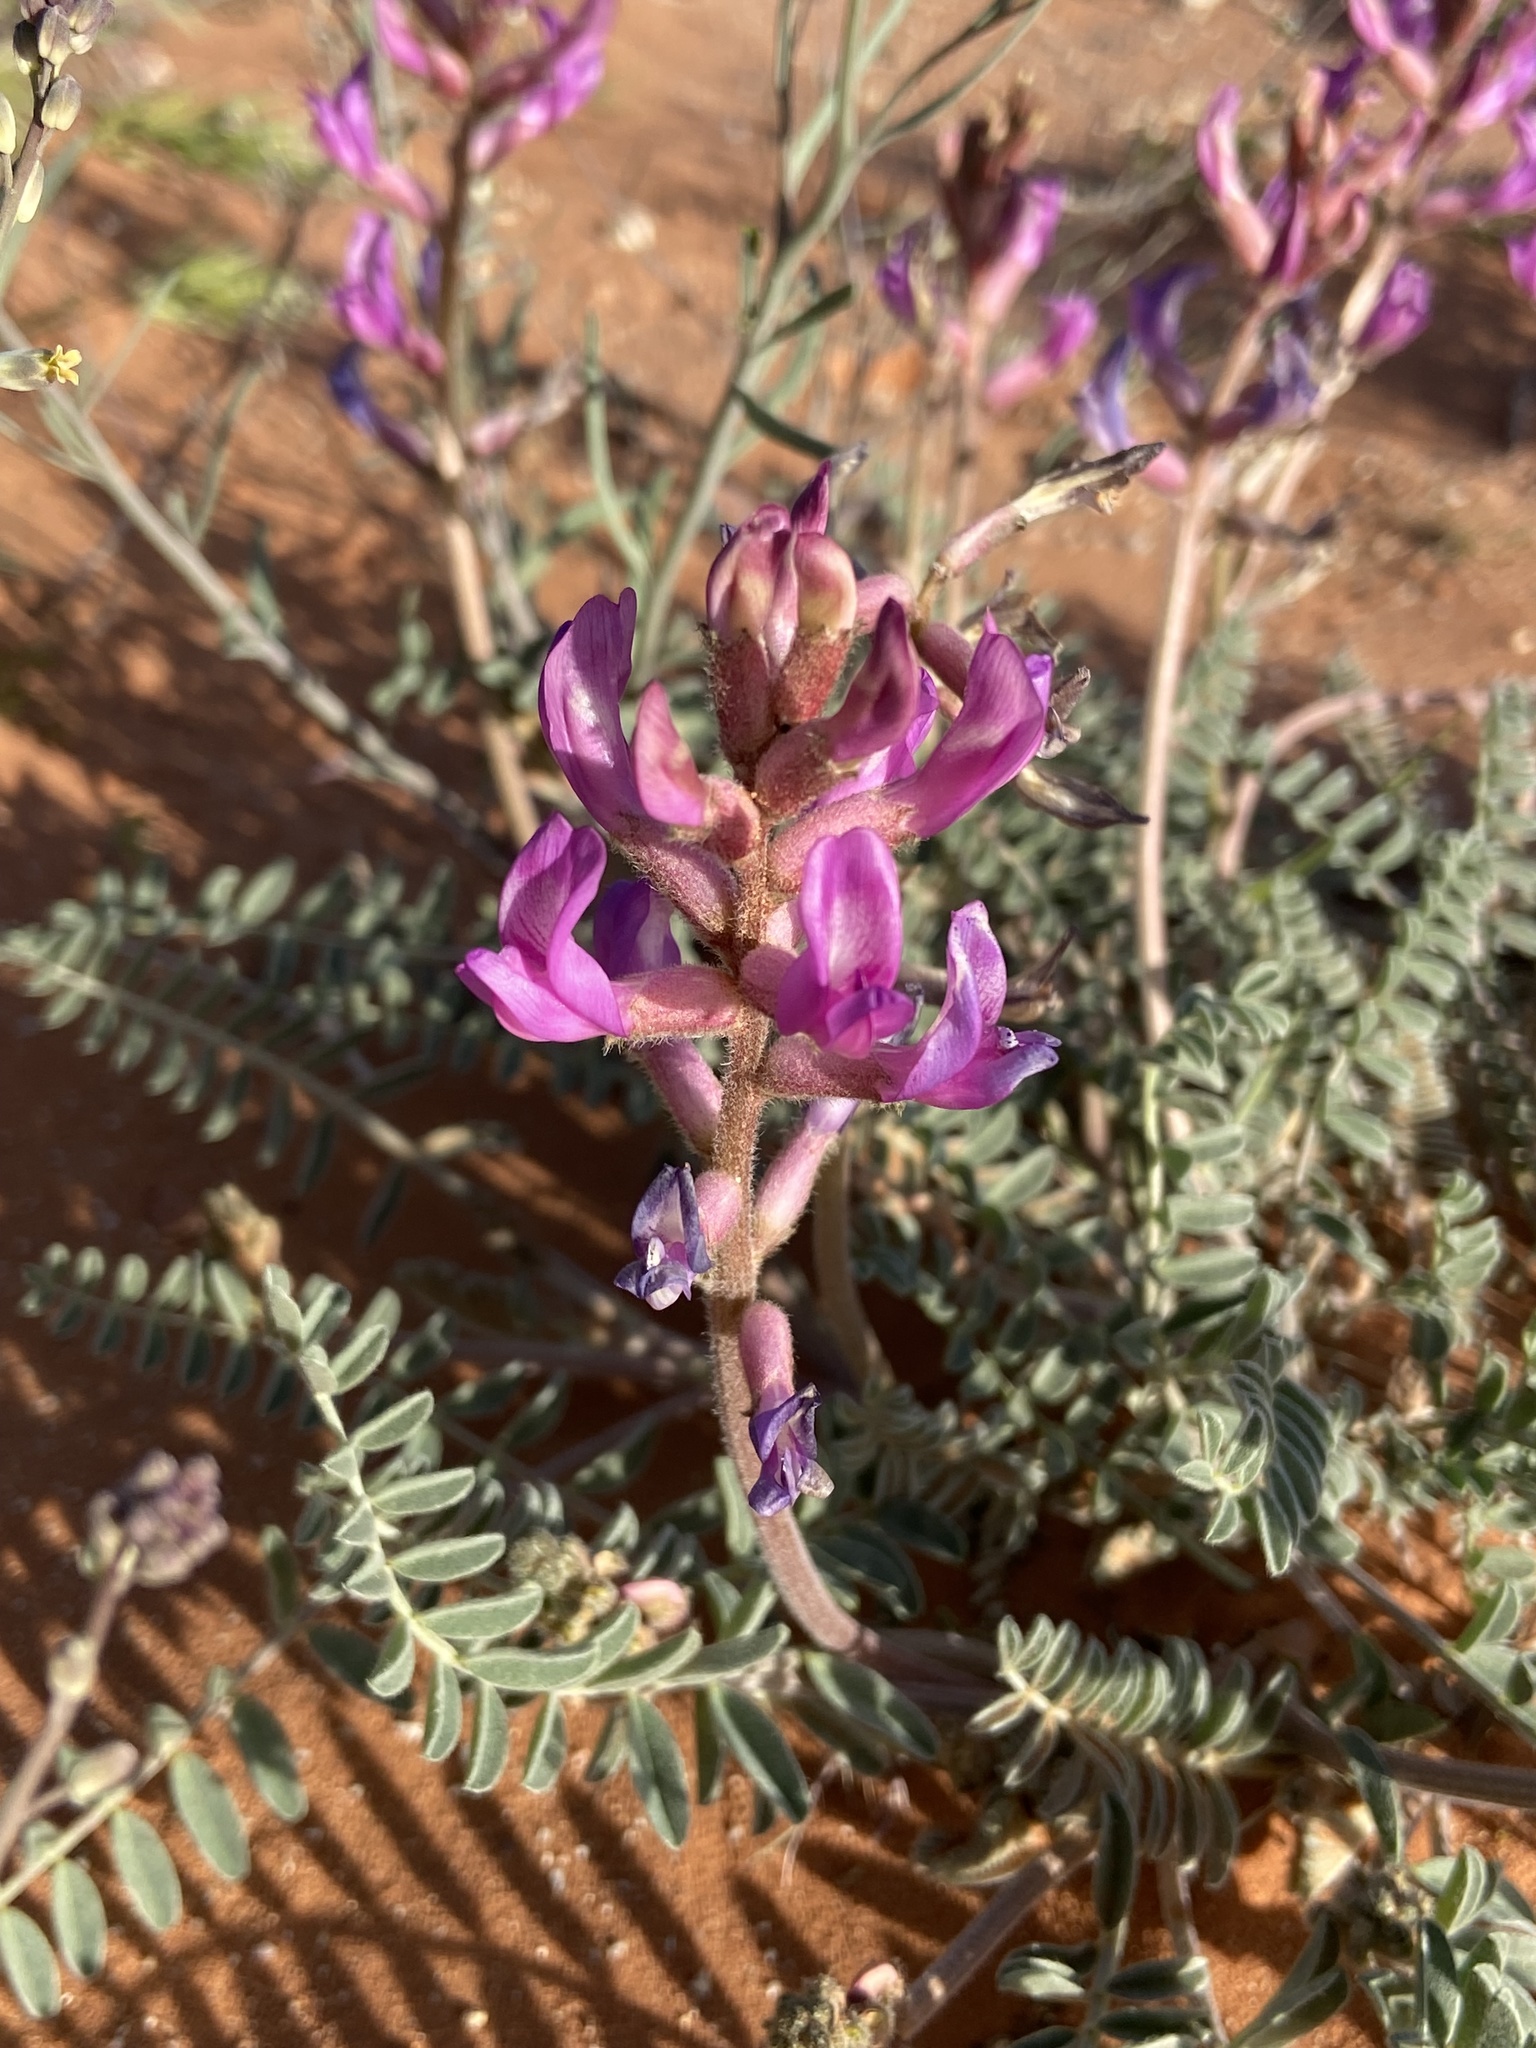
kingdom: Plantae
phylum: Tracheophyta
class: Magnoliopsida
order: Fabales
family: Fabaceae
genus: Astragalus
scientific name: Astragalus mollissimus
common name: Woolly locoweed
